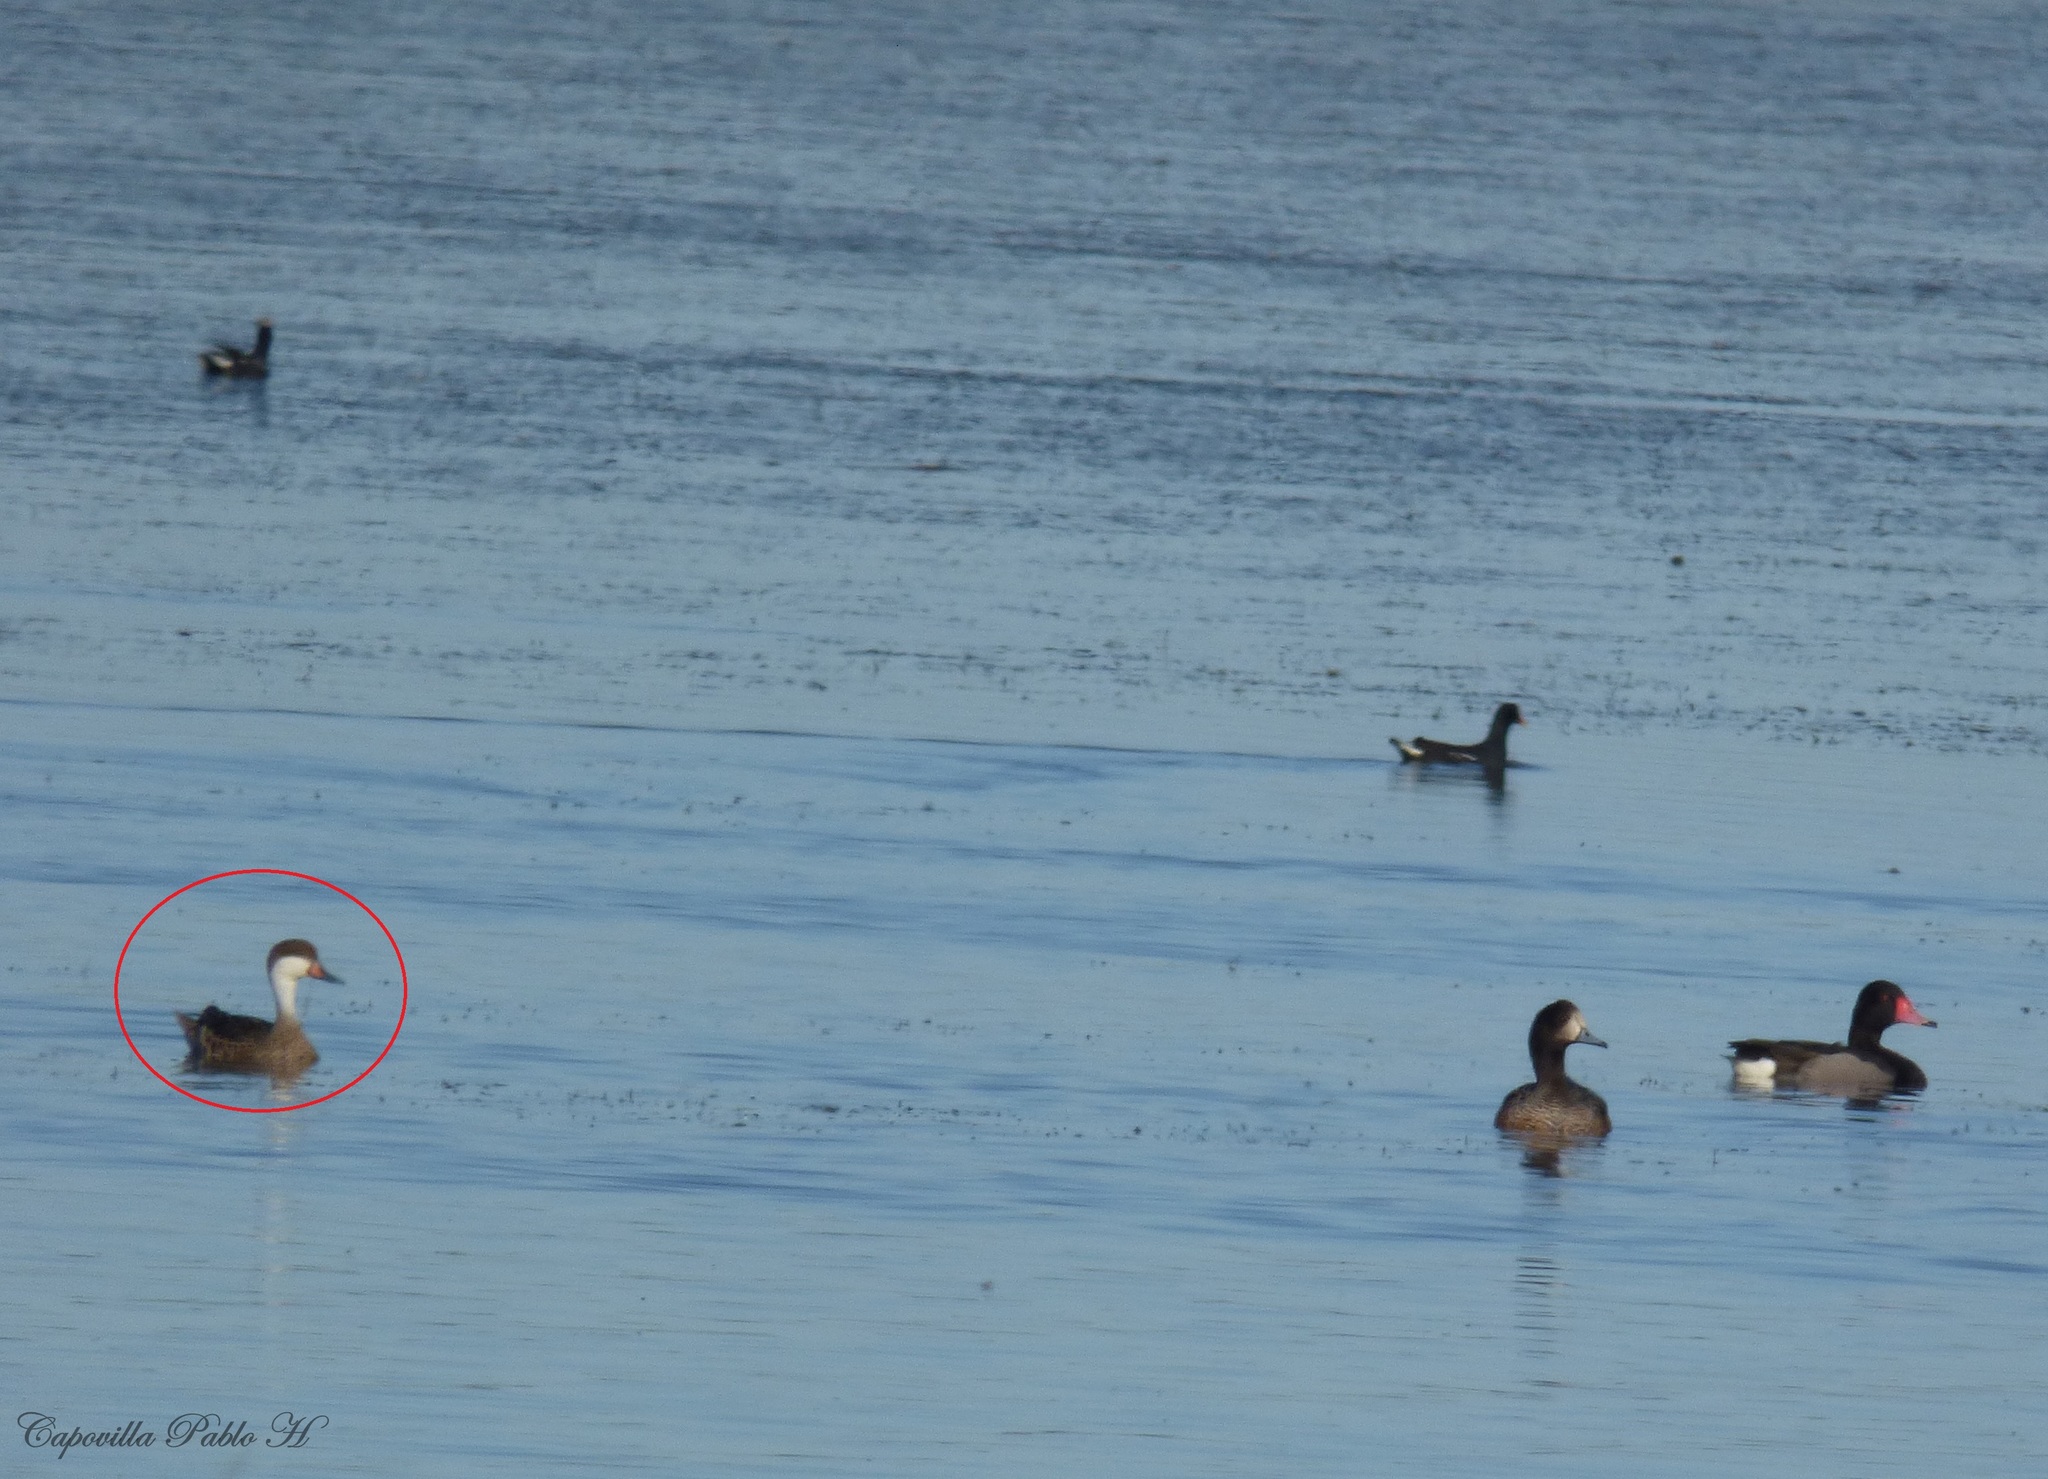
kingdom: Animalia
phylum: Chordata
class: Aves
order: Anseriformes
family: Anatidae
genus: Anas
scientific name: Anas bahamensis
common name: White-cheeked pintail
